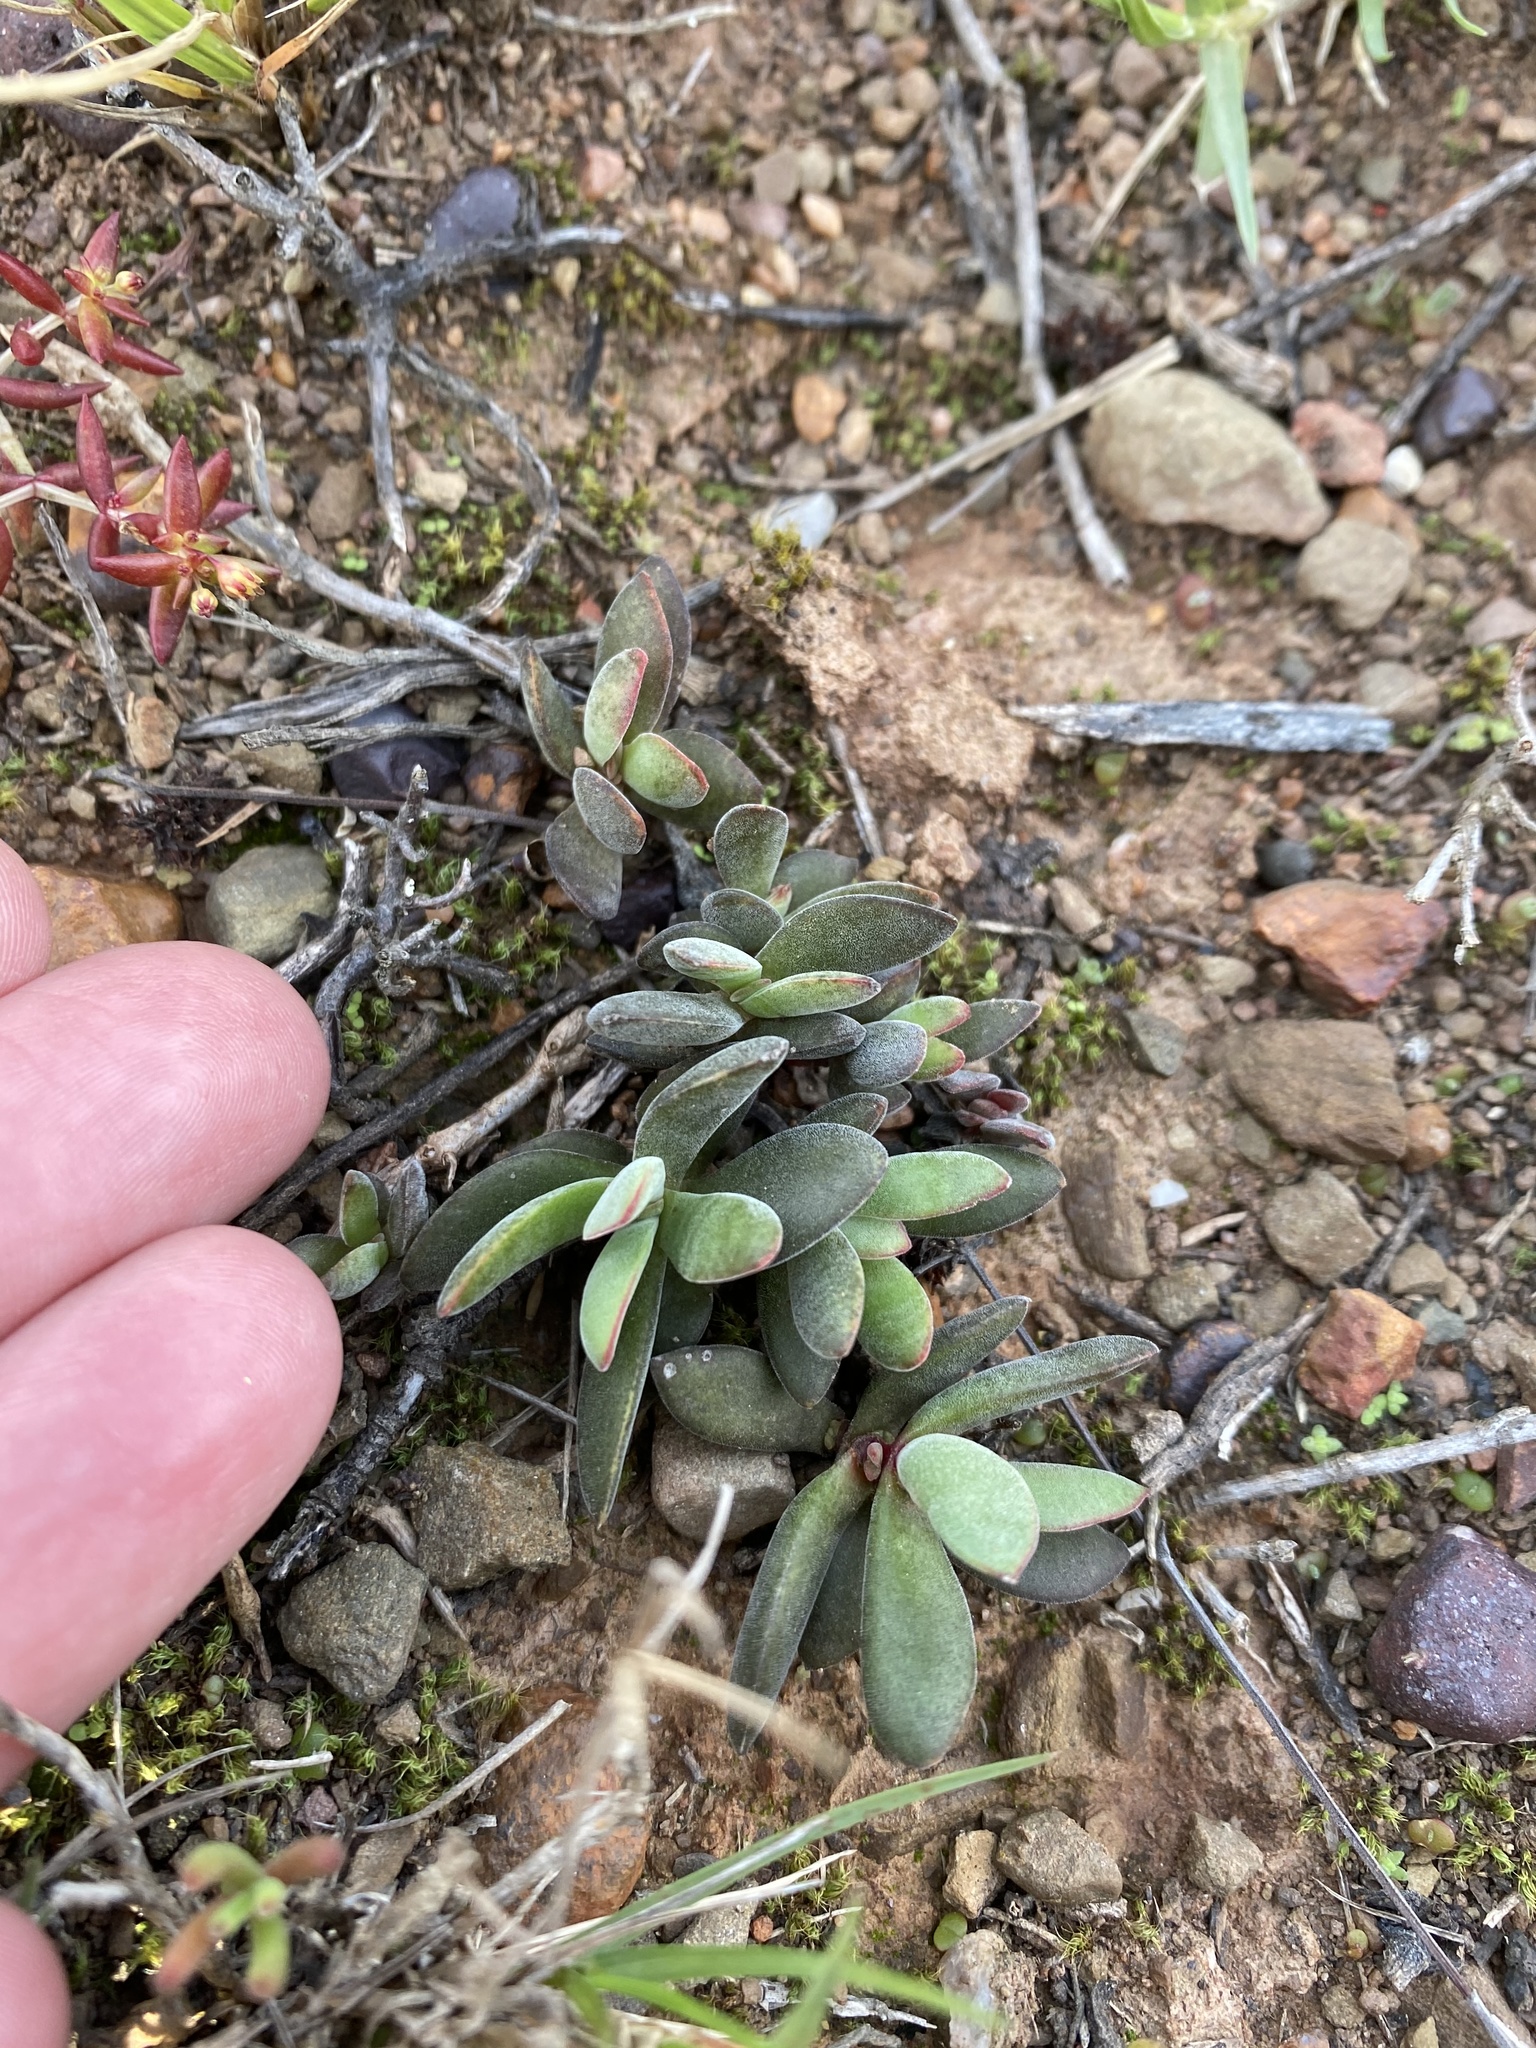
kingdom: Plantae
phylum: Tracheophyta
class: Magnoliopsida
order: Saxifragales
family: Crassulaceae
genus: Crassula
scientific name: Crassula atropurpurea
